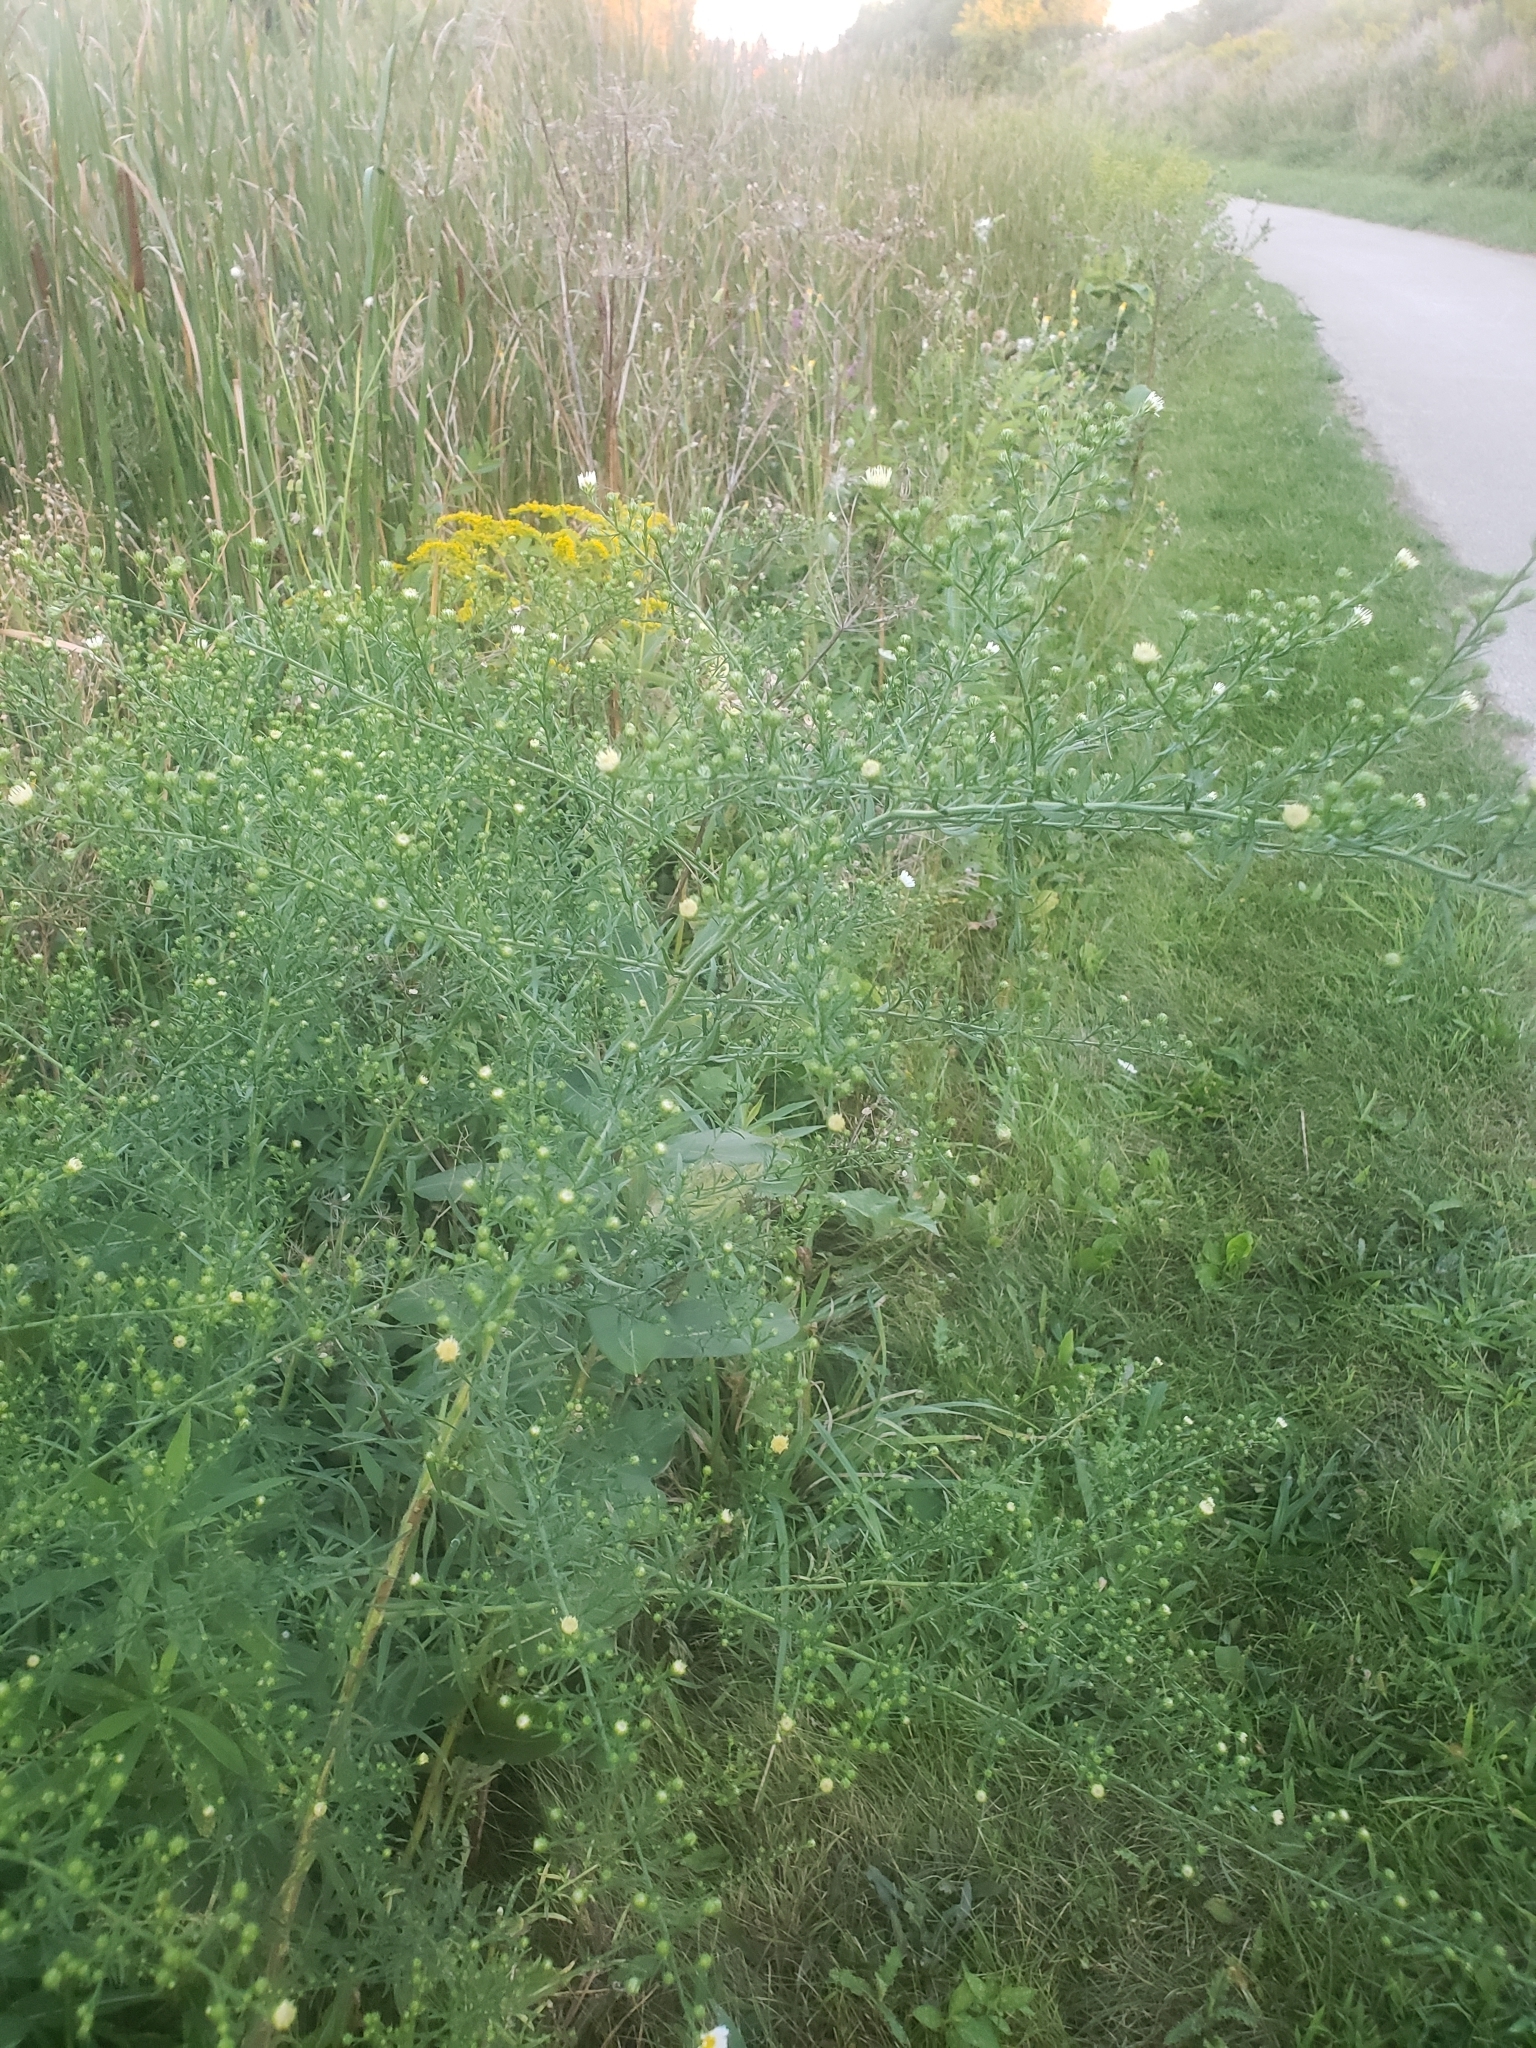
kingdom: Plantae
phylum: Tracheophyta
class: Magnoliopsida
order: Asterales
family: Asteraceae
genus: Symphyotrichum
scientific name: Symphyotrichum pilosum
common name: Awl aster
